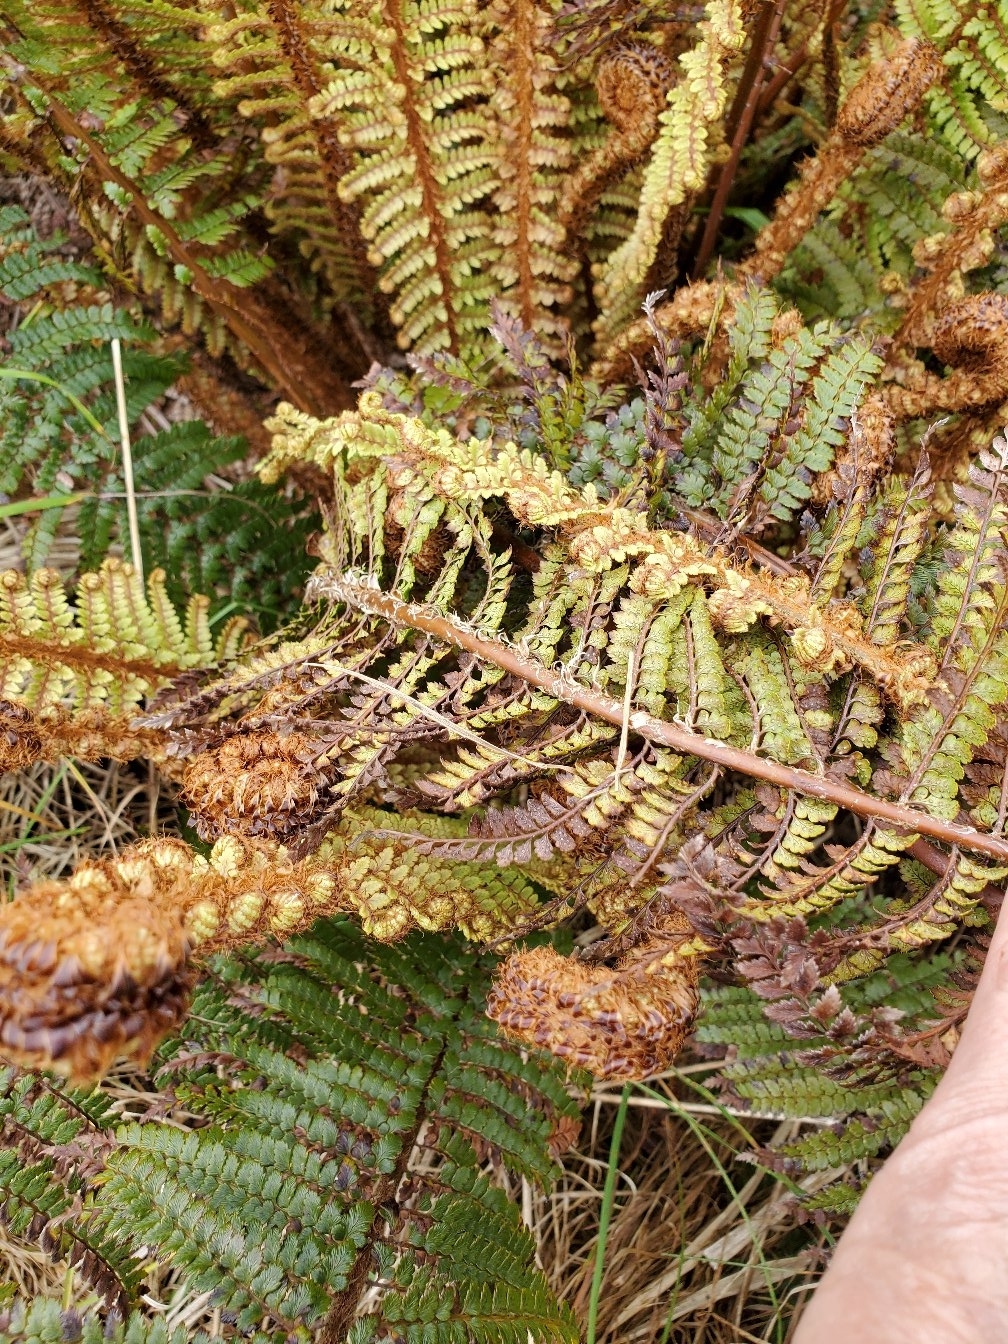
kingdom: Plantae
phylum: Tracheophyta
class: Polypodiopsida
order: Polypodiales
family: Dryopteridaceae
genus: Polystichum
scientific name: Polystichum vestitum
